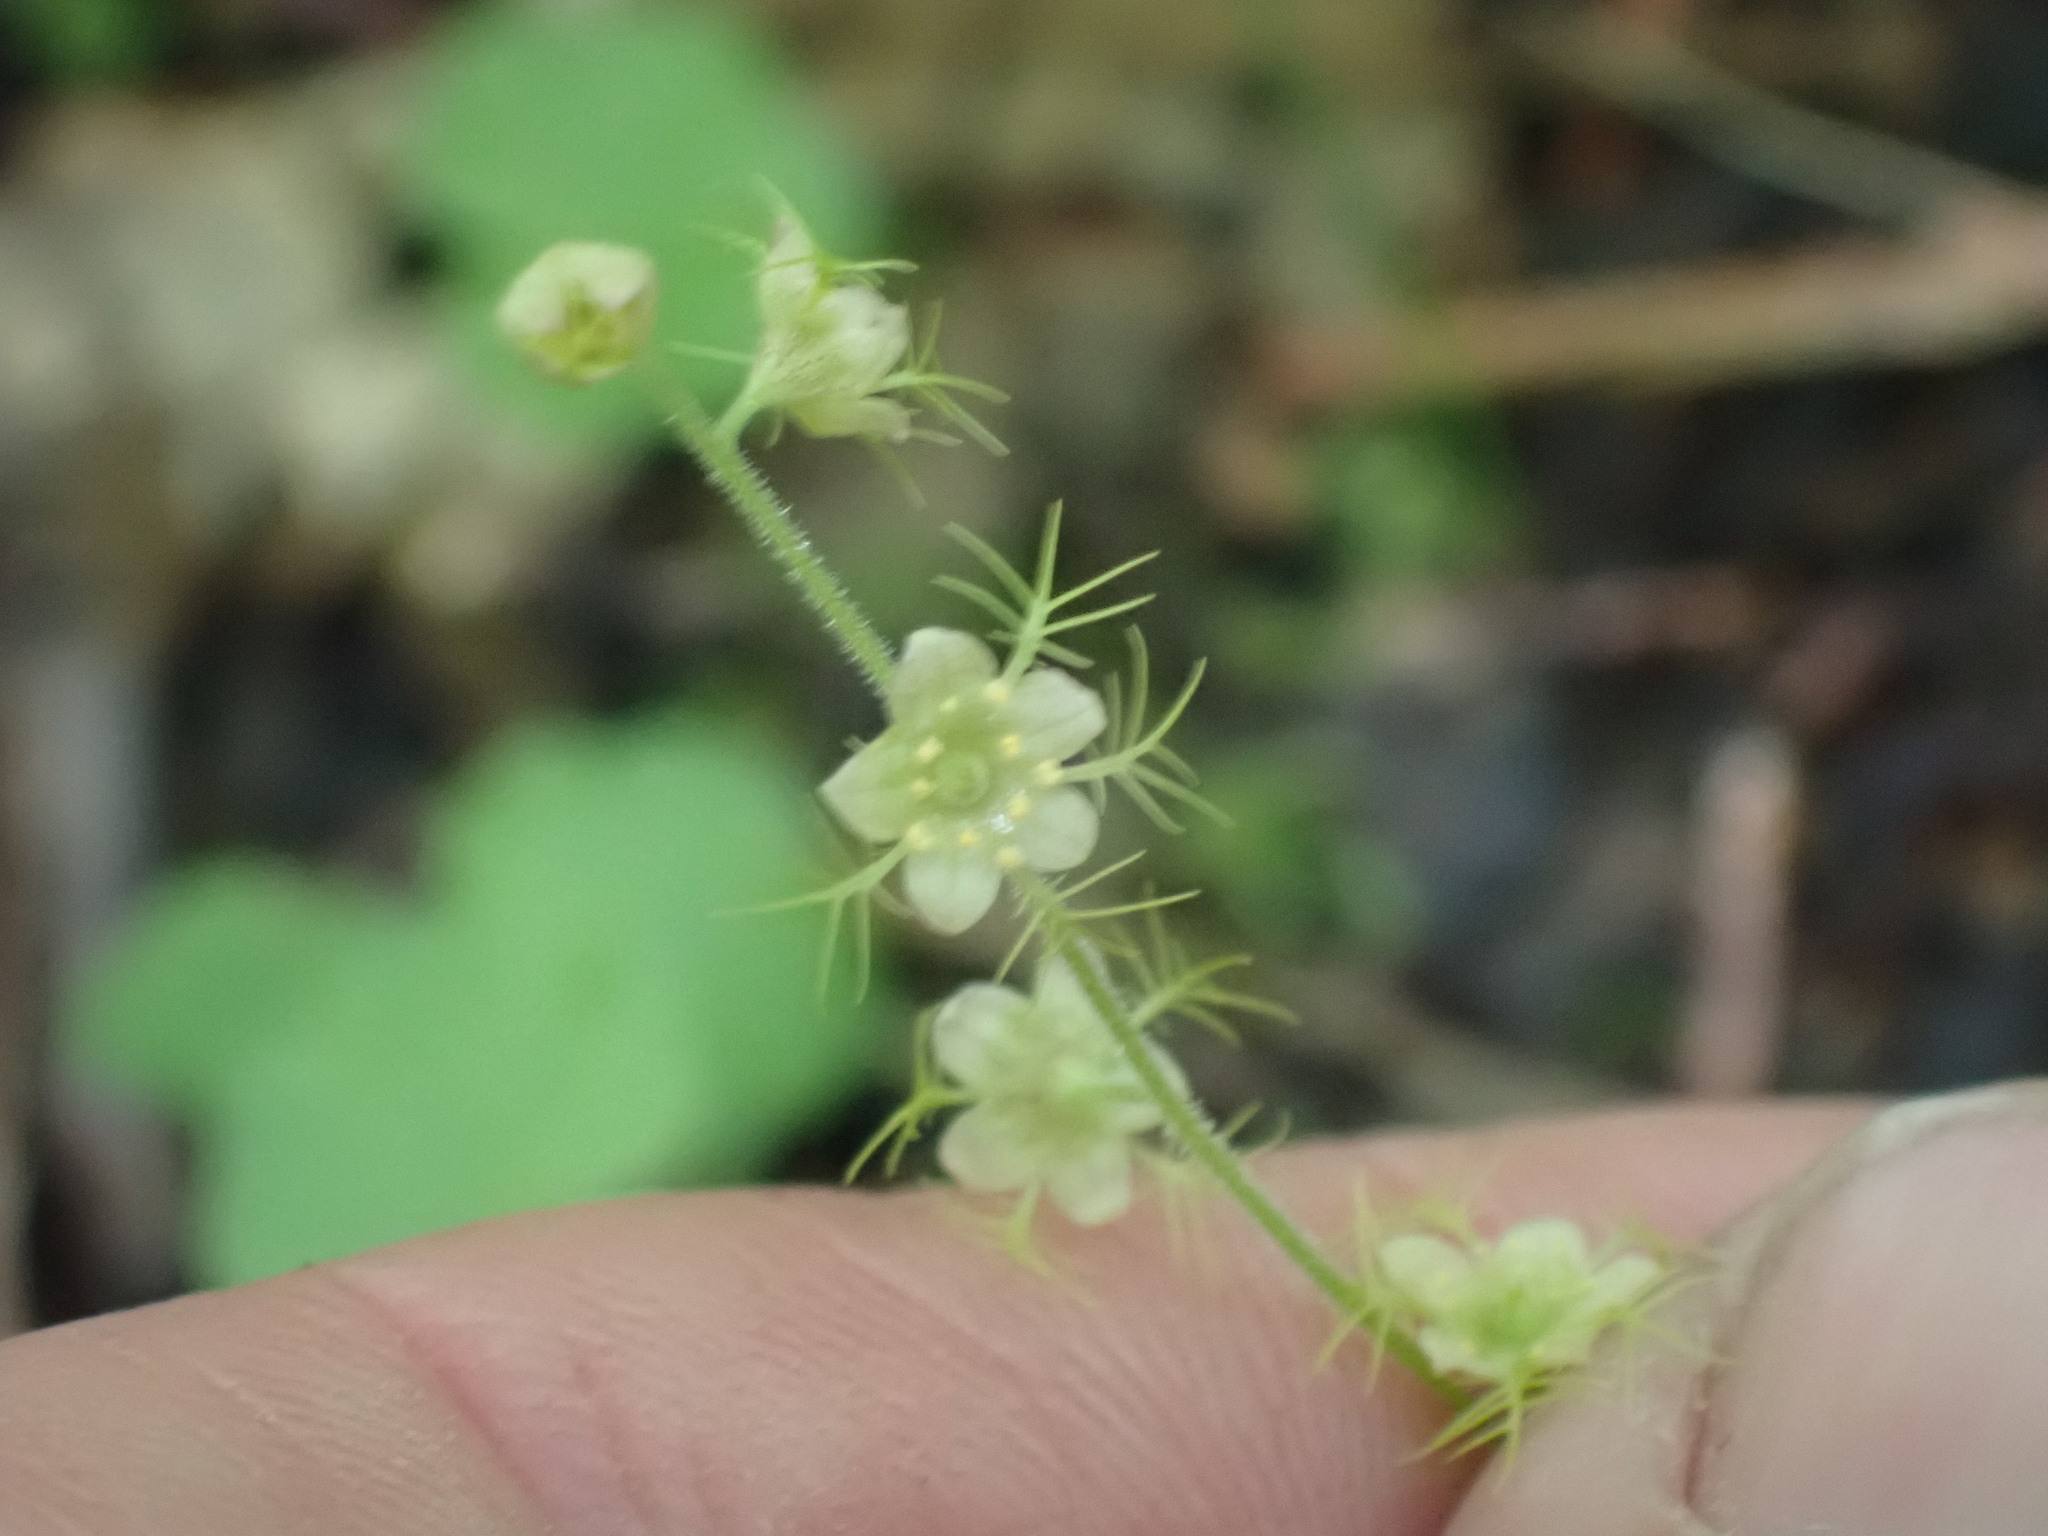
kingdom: Plantae
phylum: Tracheophyta
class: Magnoliopsida
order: Saxifragales
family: Saxifragaceae
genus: Mitella
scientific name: Mitella nuda
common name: Bare-stemmed bishop's-cap
